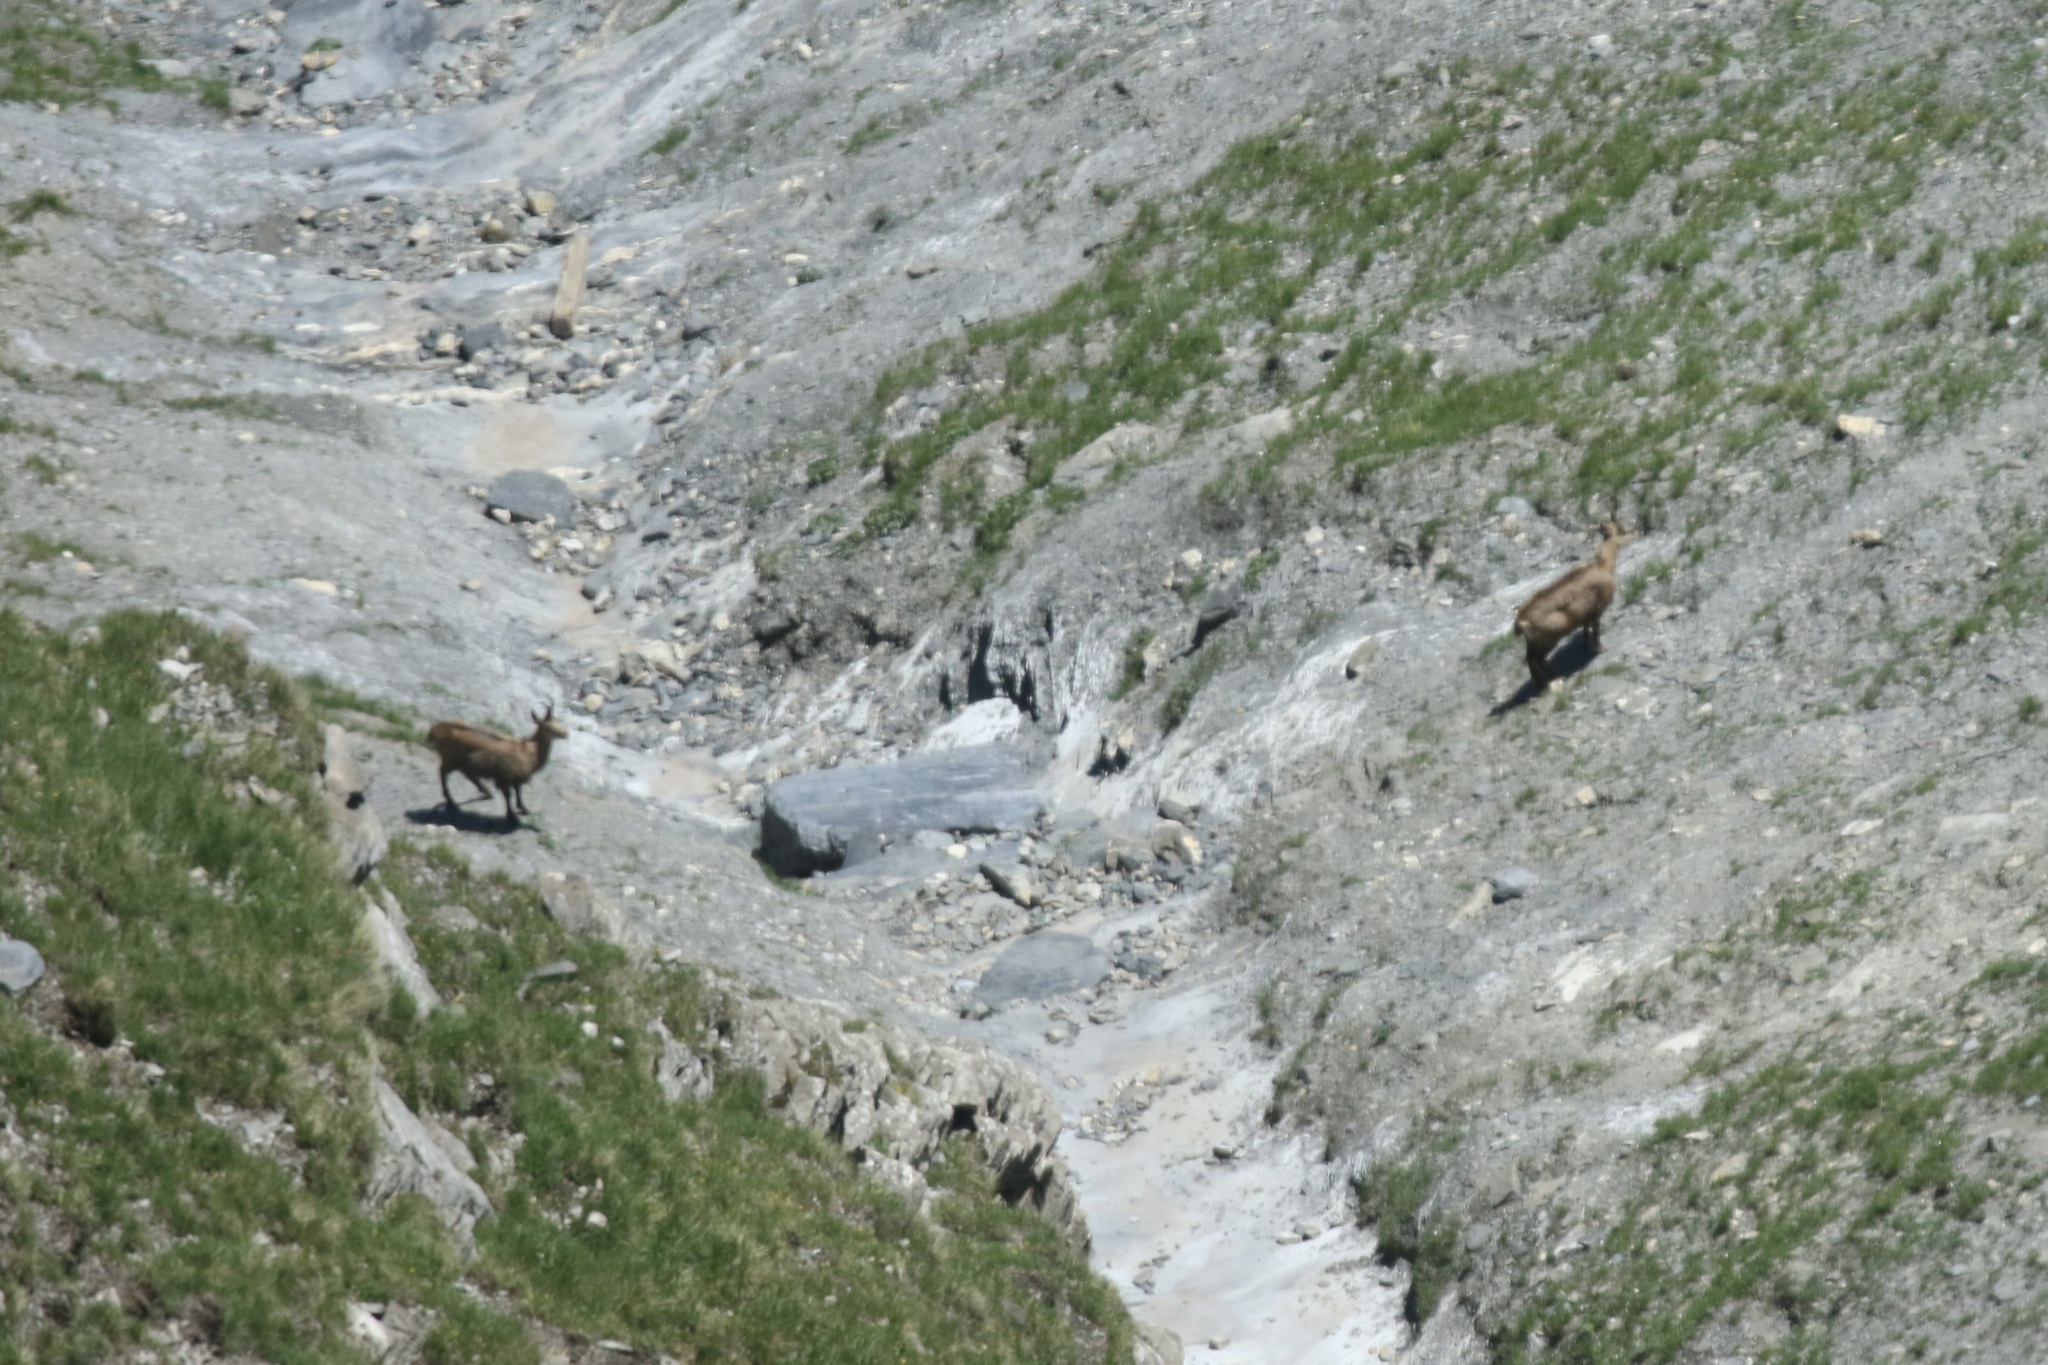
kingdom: Animalia
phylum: Chordata
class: Mammalia
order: Artiodactyla
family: Bovidae
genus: Rupicapra
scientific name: Rupicapra rupicapra
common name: Chamois
